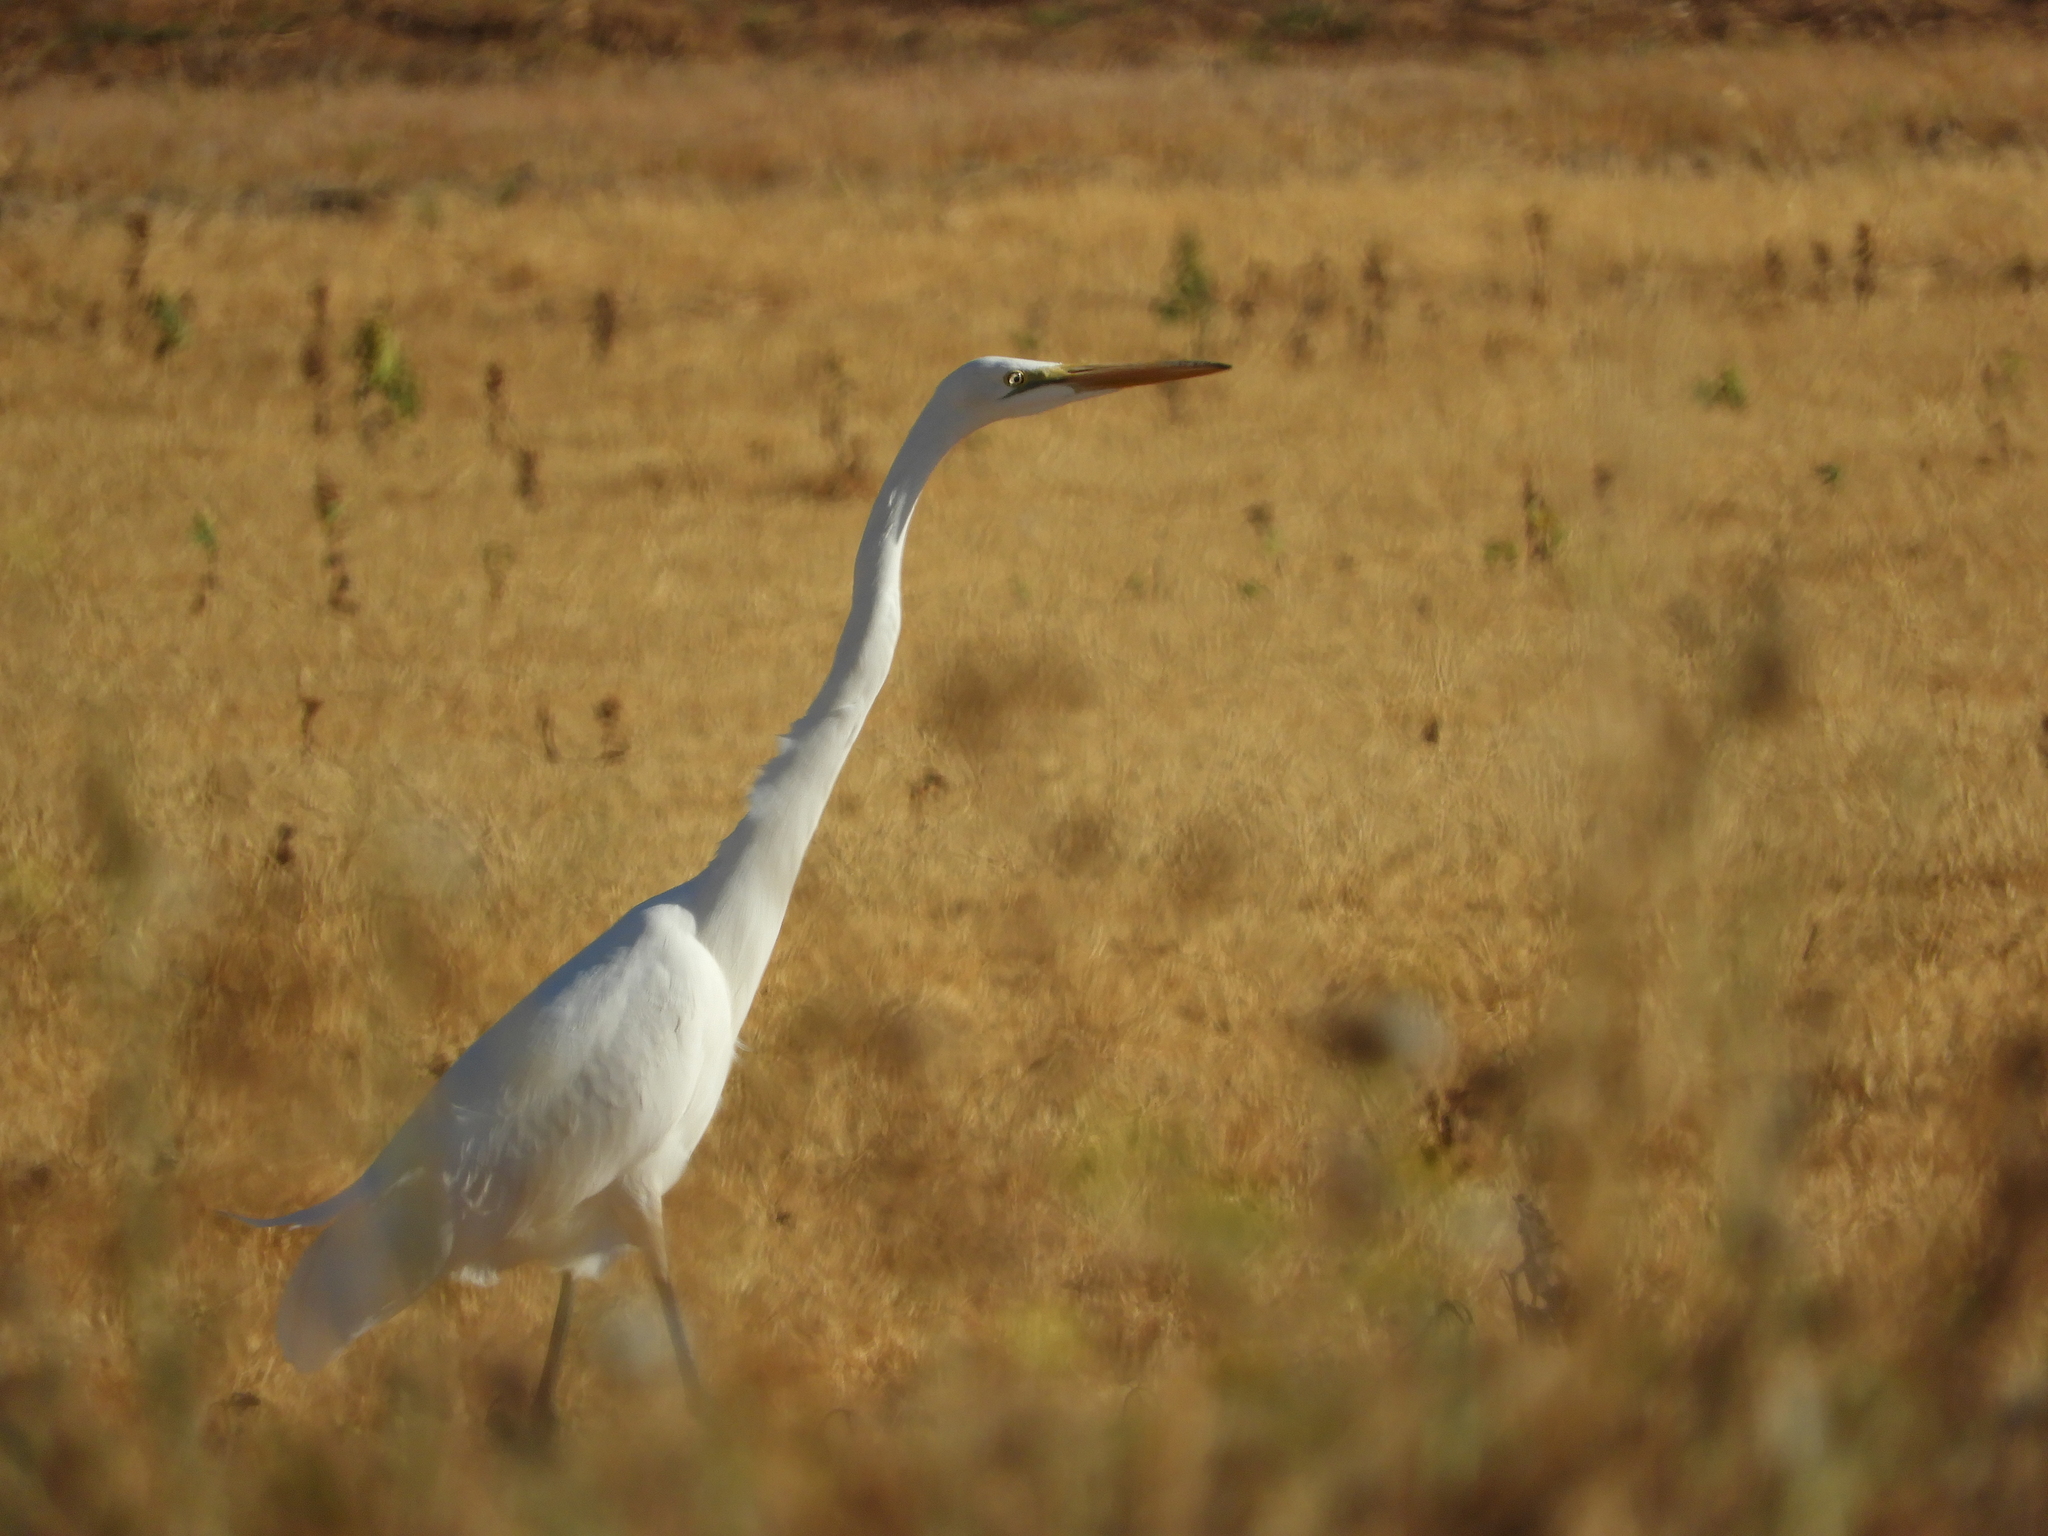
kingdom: Animalia
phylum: Chordata
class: Aves
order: Pelecaniformes
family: Ardeidae
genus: Ardea
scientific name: Ardea alba
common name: Great egret
